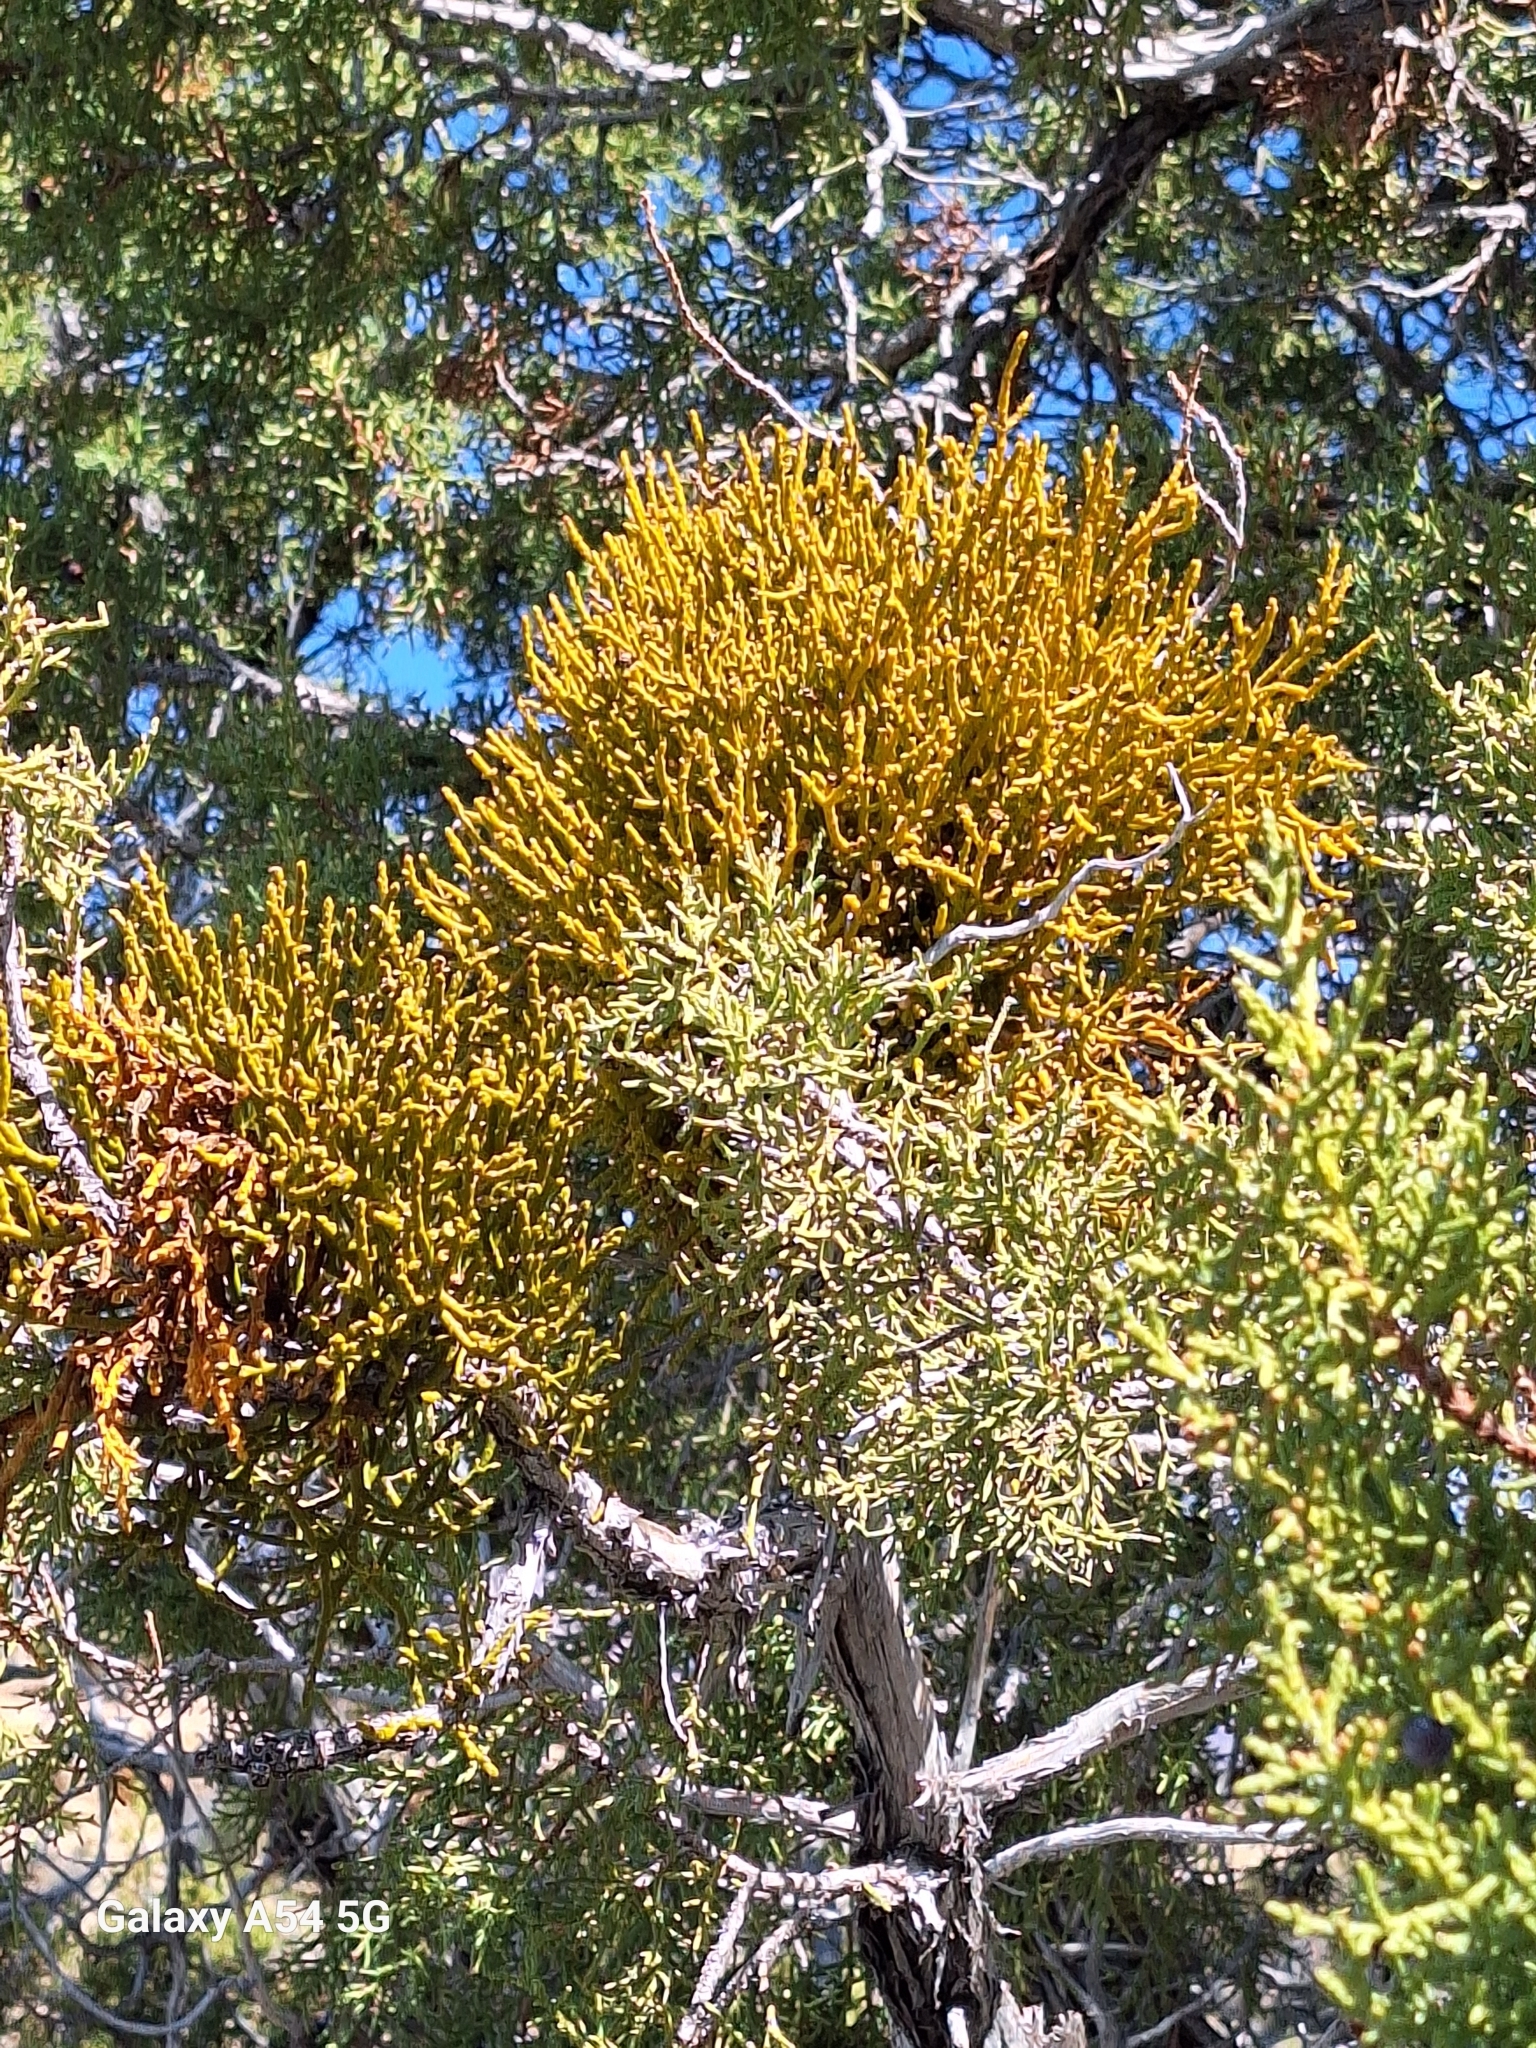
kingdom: Plantae
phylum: Tracheophyta
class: Magnoliopsida
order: Santalales
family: Viscaceae
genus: Phoradendron
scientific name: Phoradendron juniperinum
